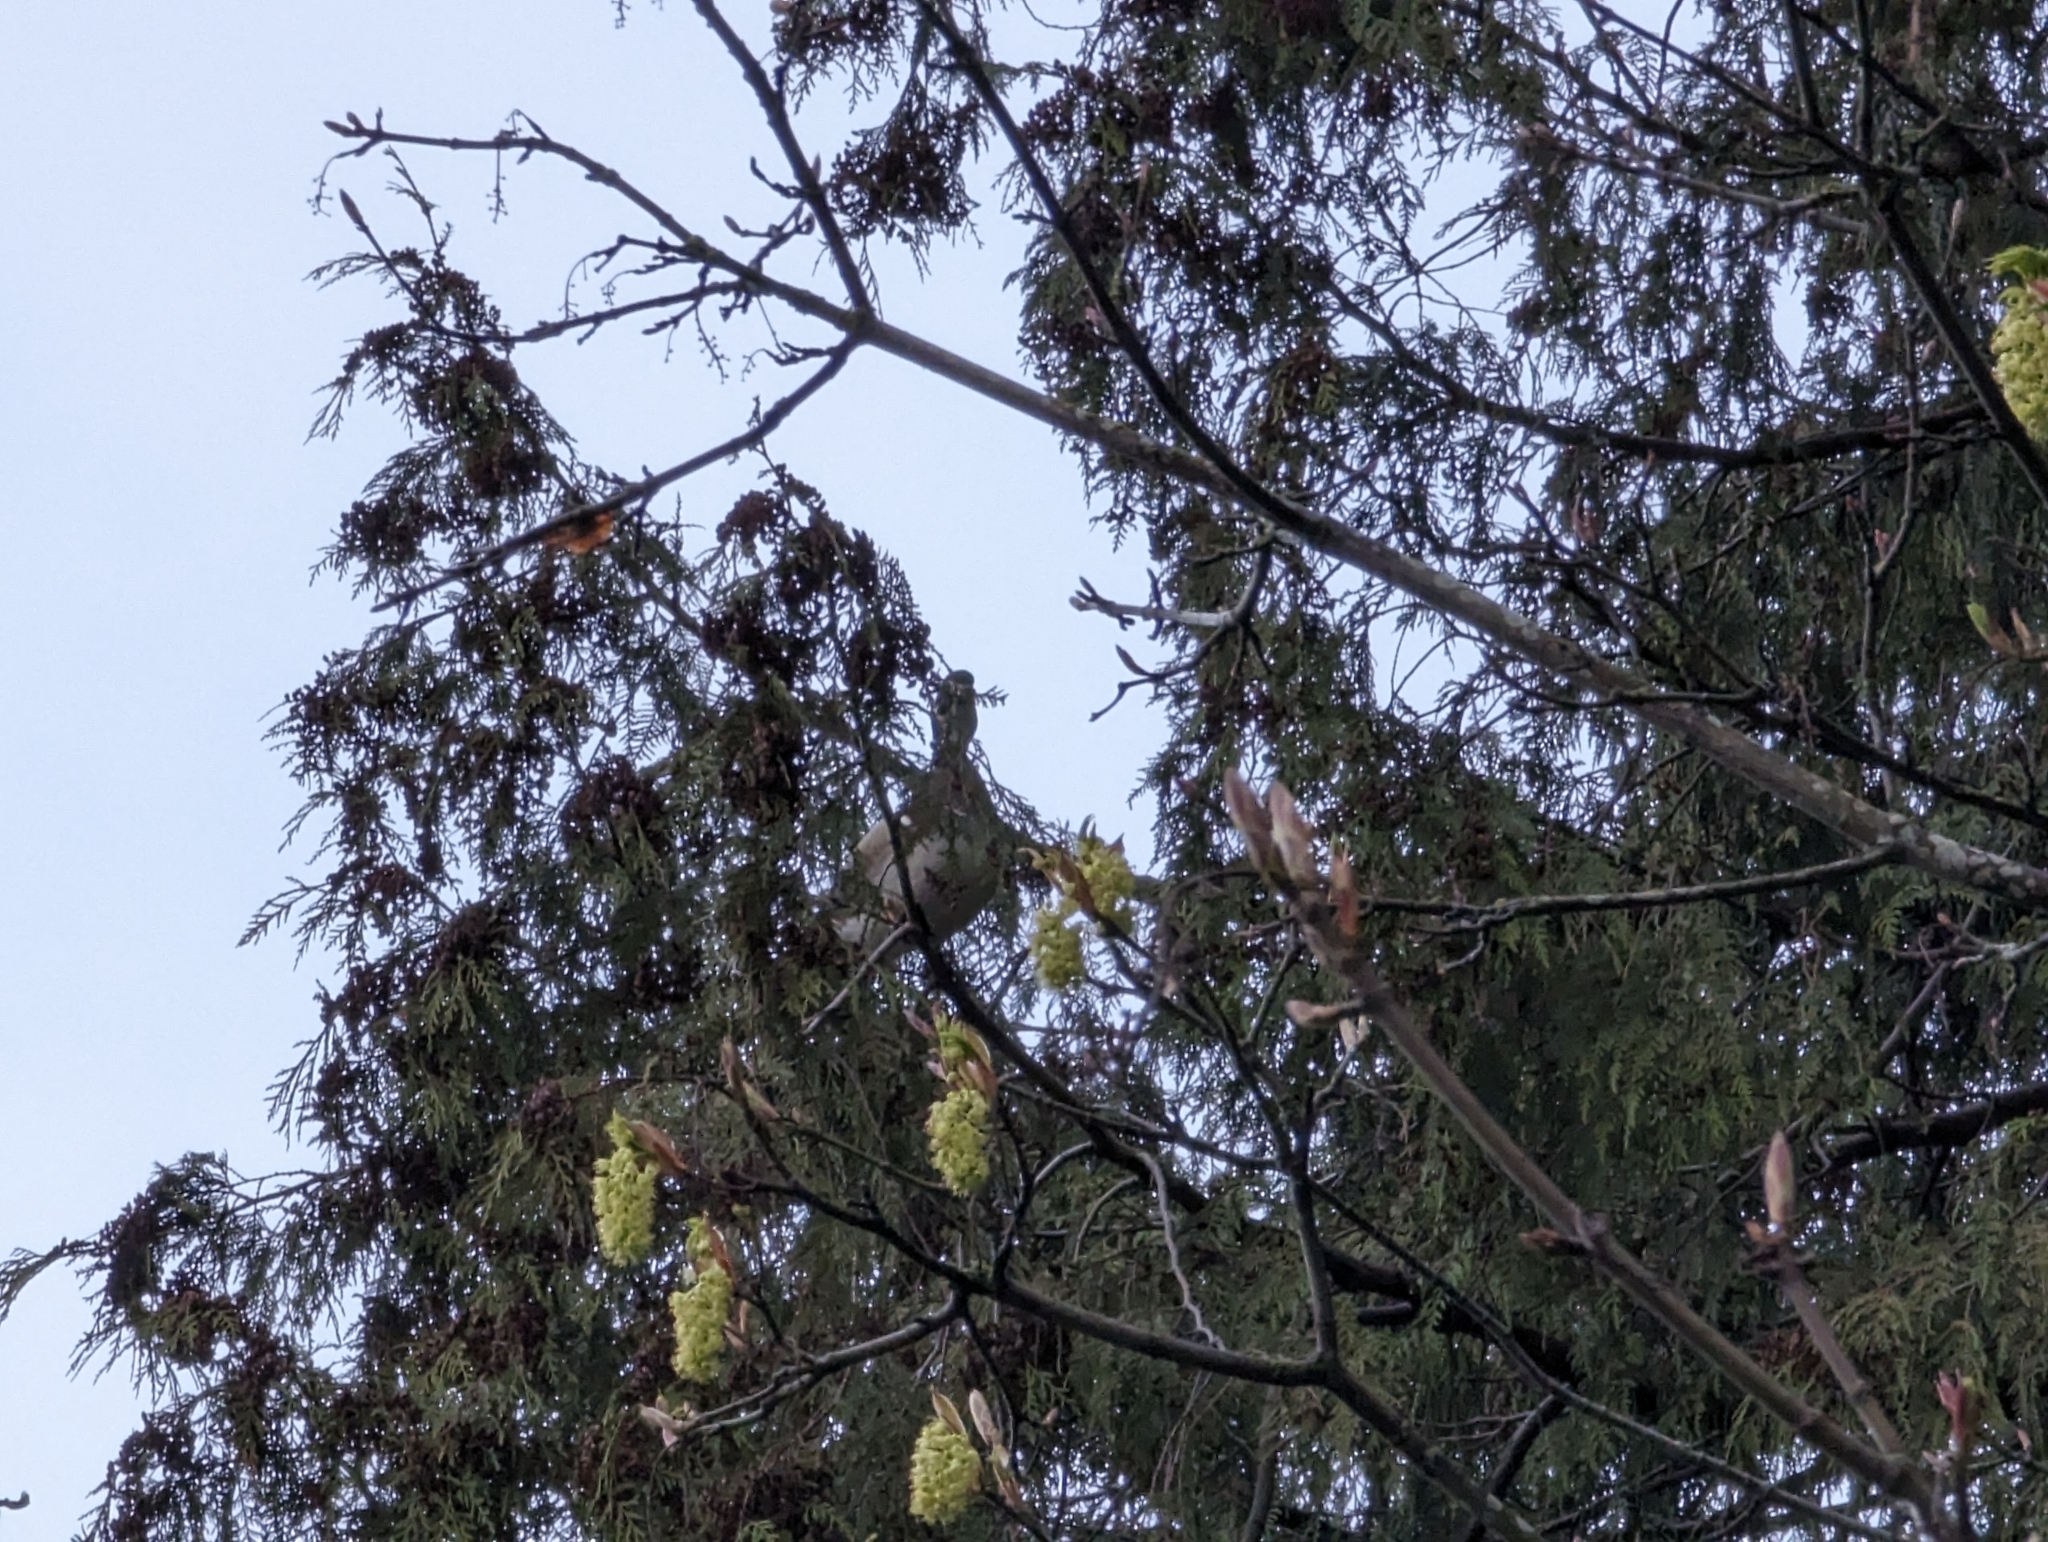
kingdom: Animalia
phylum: Chordata
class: Aves
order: Anseriformes
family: Anatidae
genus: Aix
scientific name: Aix sponsa
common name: Wood duck
